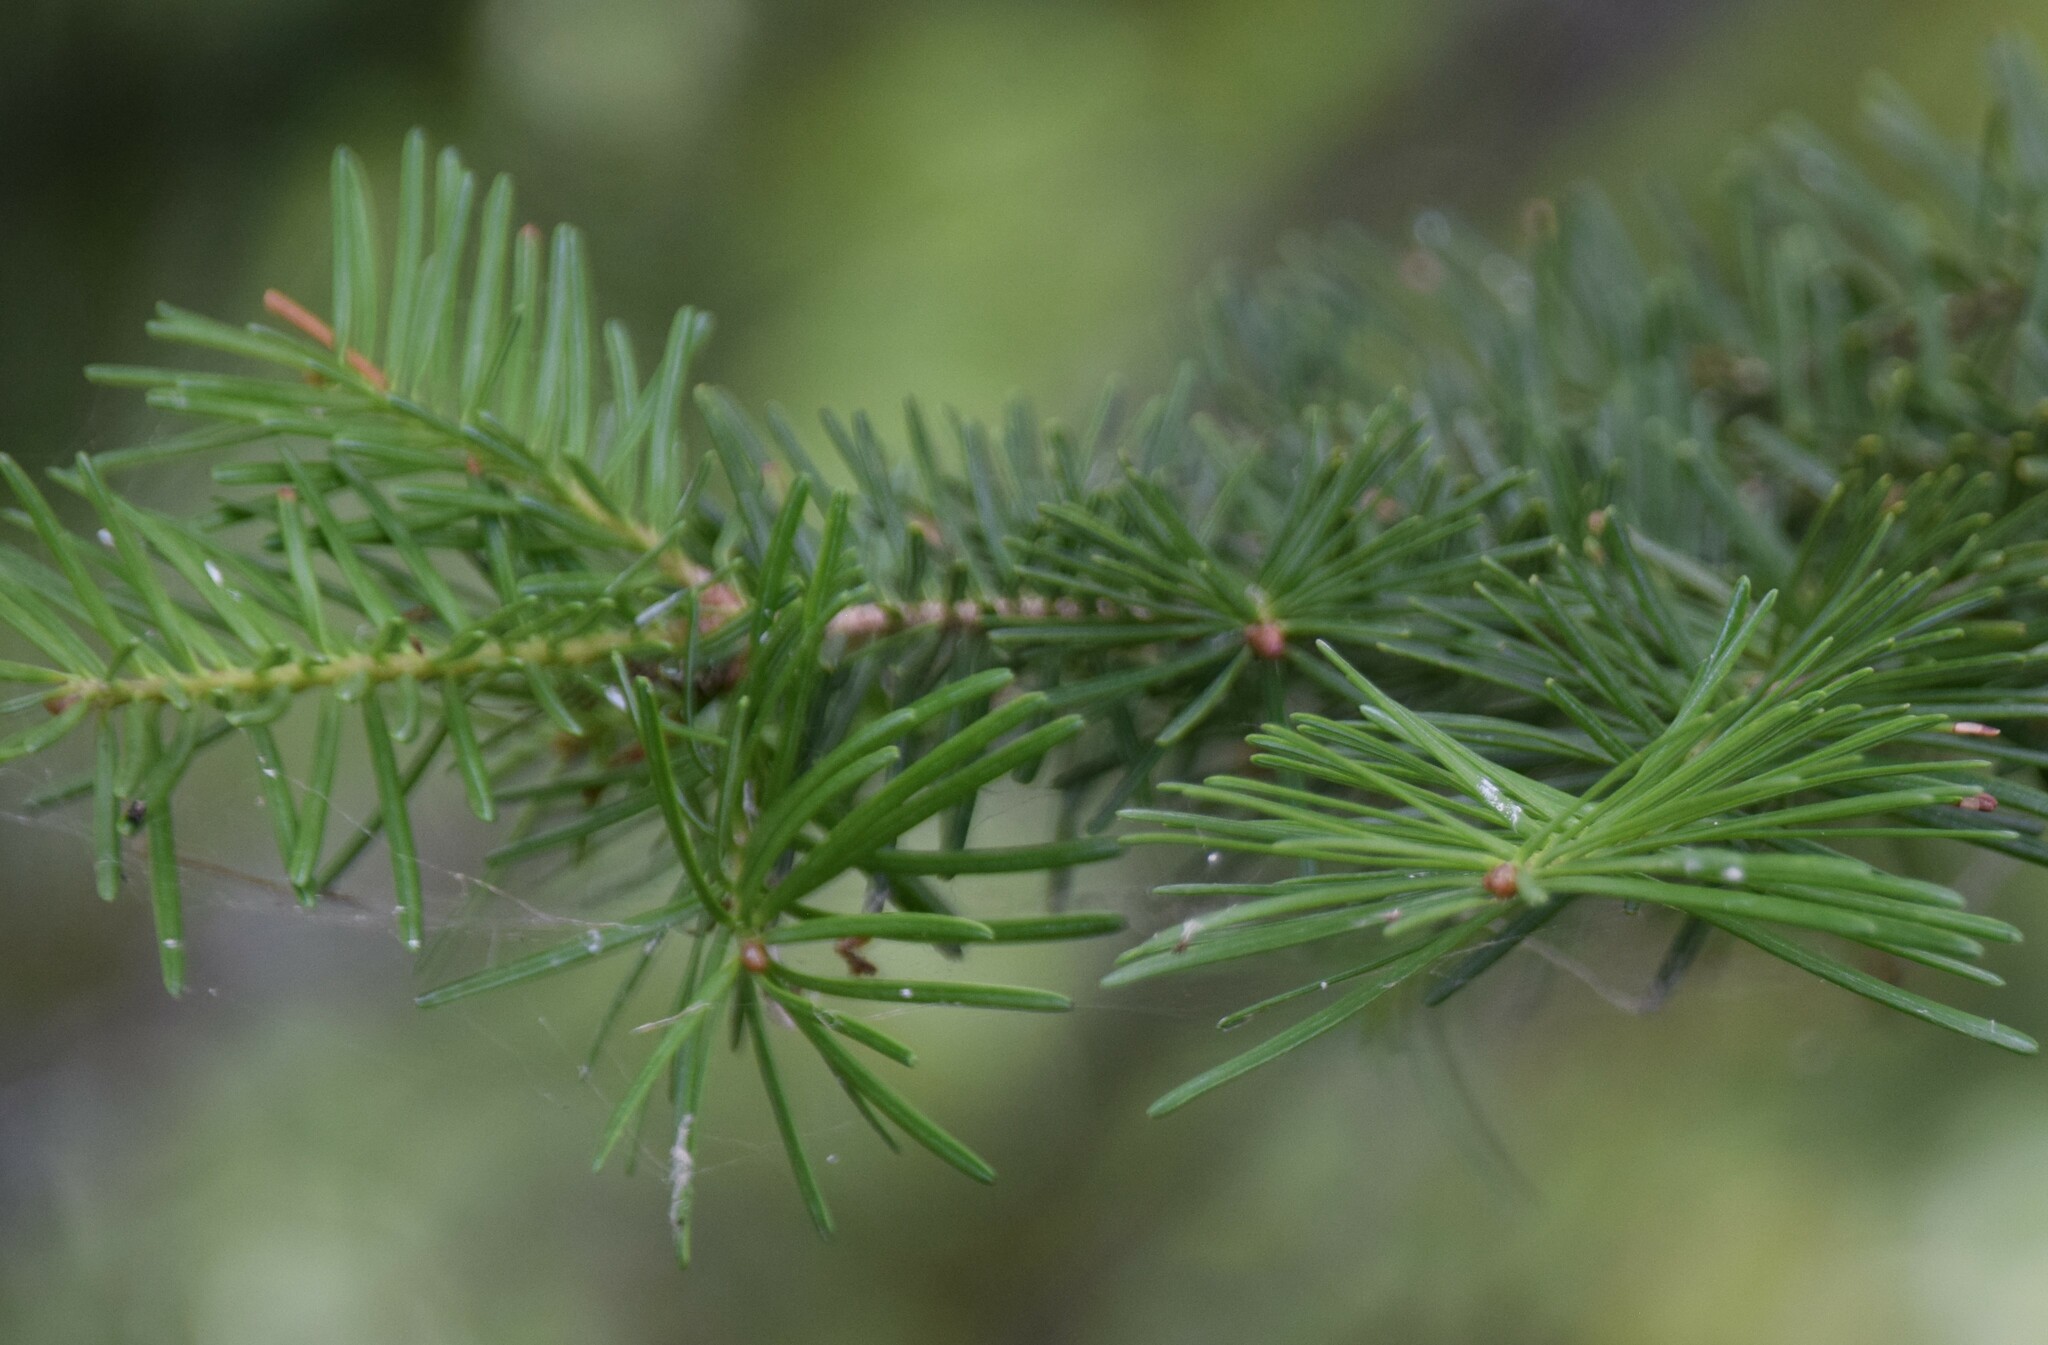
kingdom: Plantae
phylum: Tracheophyta
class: Pinopsida
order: Pinales
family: Pinaceae
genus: Abies
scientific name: Abies balsamea
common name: Balsam fir
